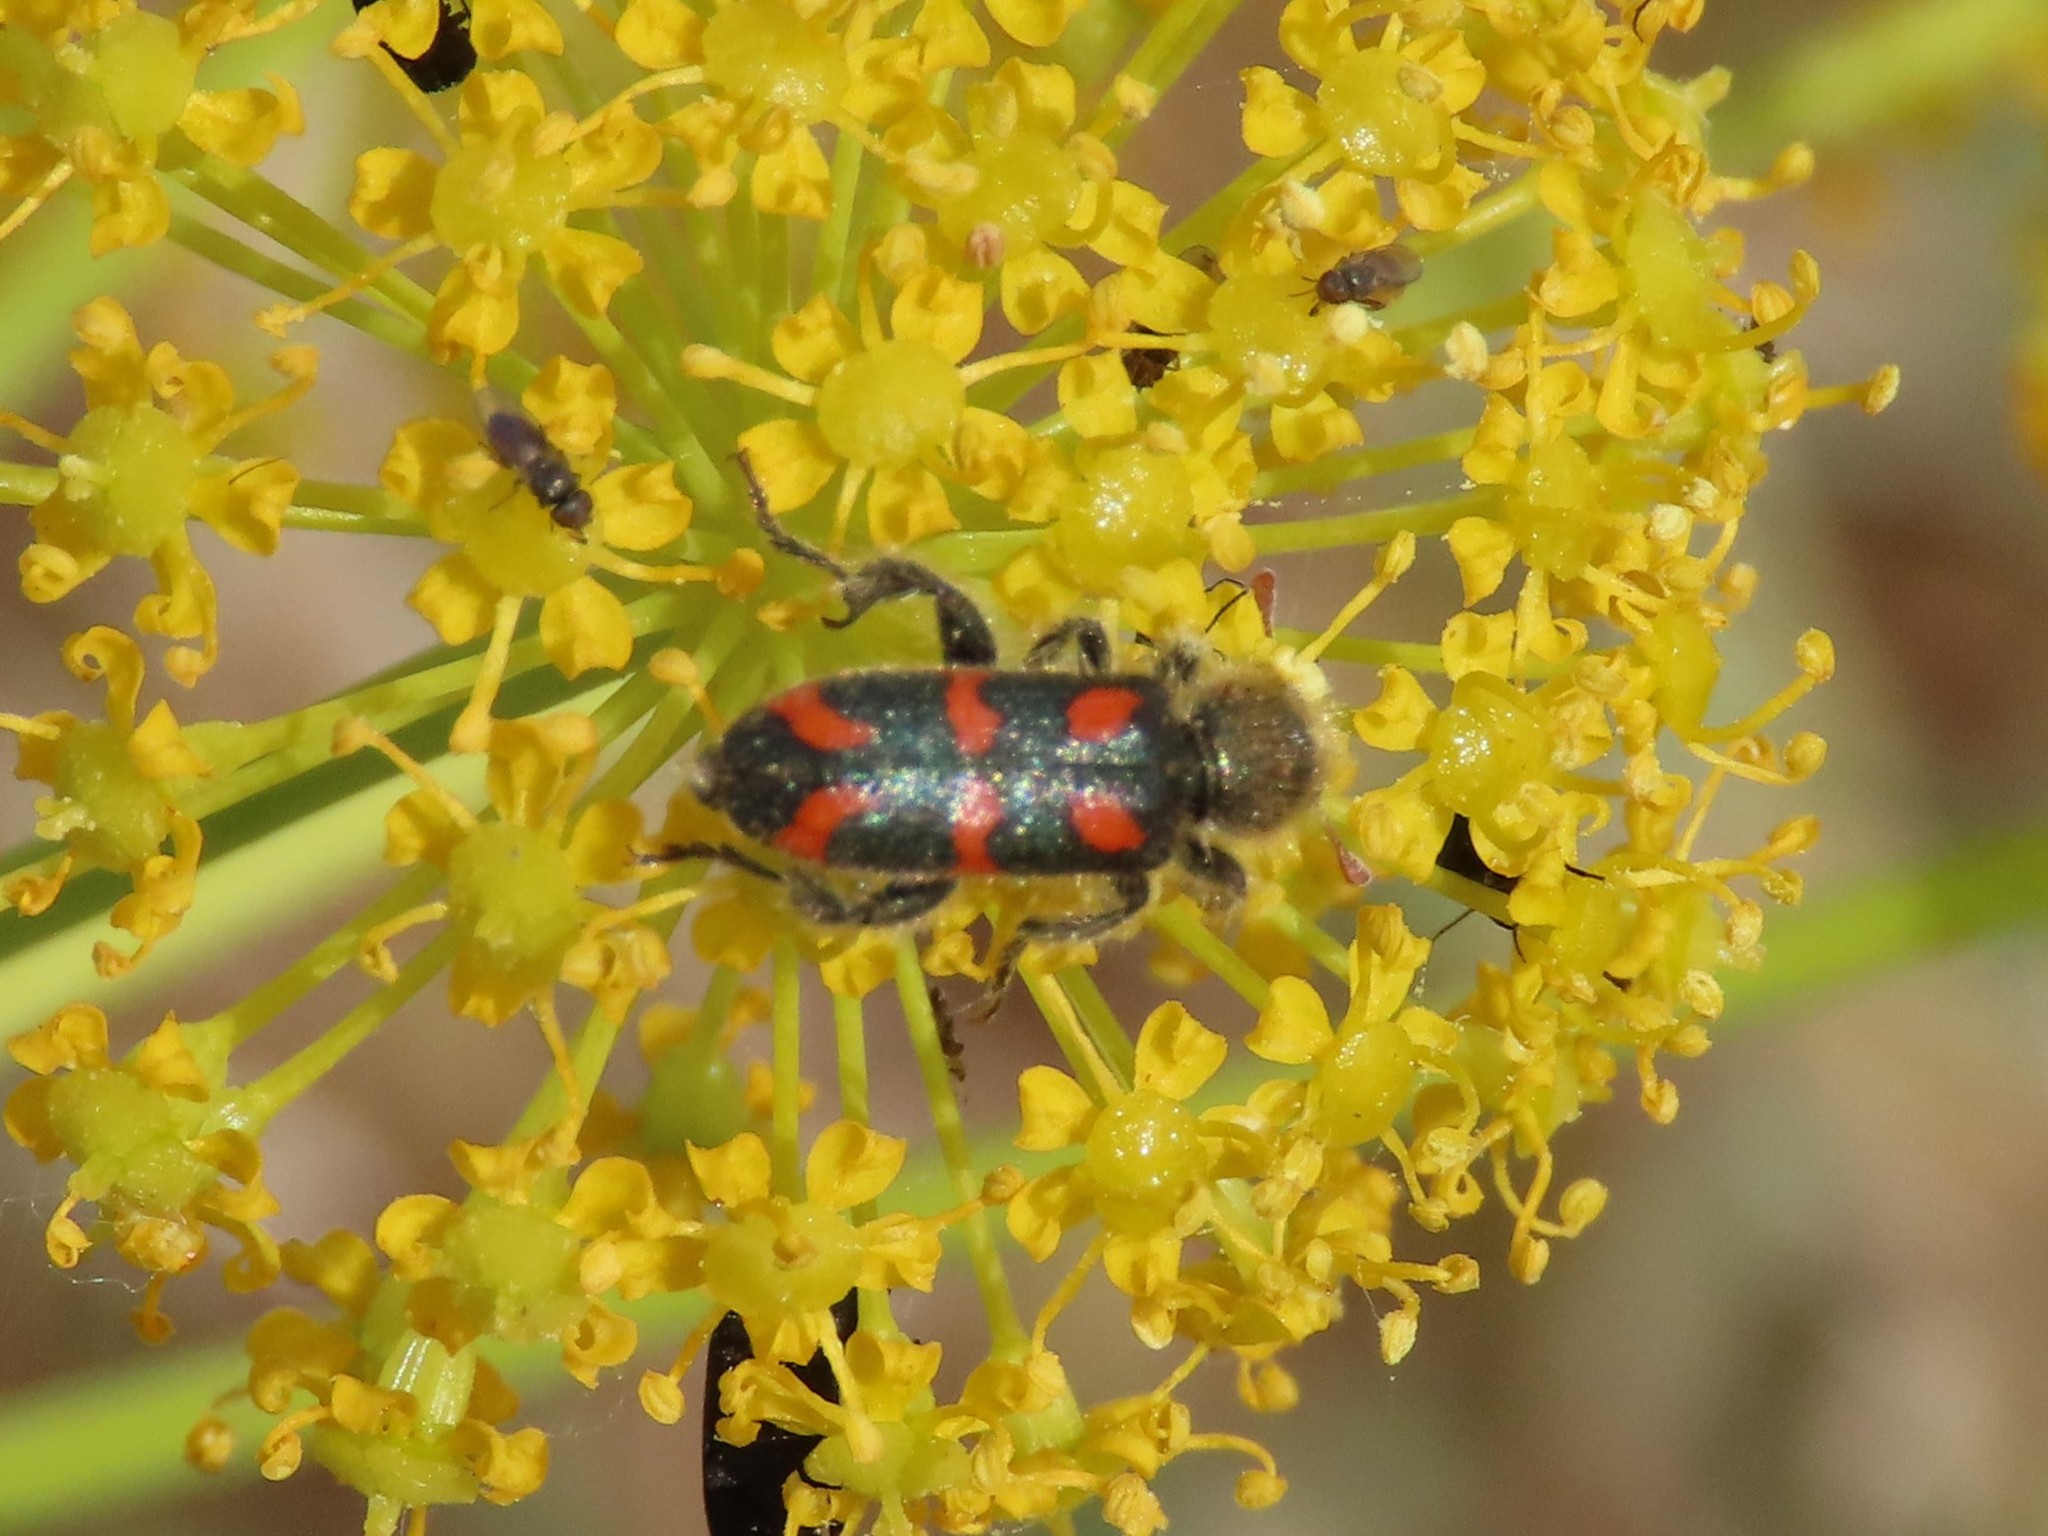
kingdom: Animalia
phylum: Arthropoda
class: Insecta
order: Coleoptera
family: Cleridae
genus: Trichodes
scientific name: Trichodes flavocinctus
